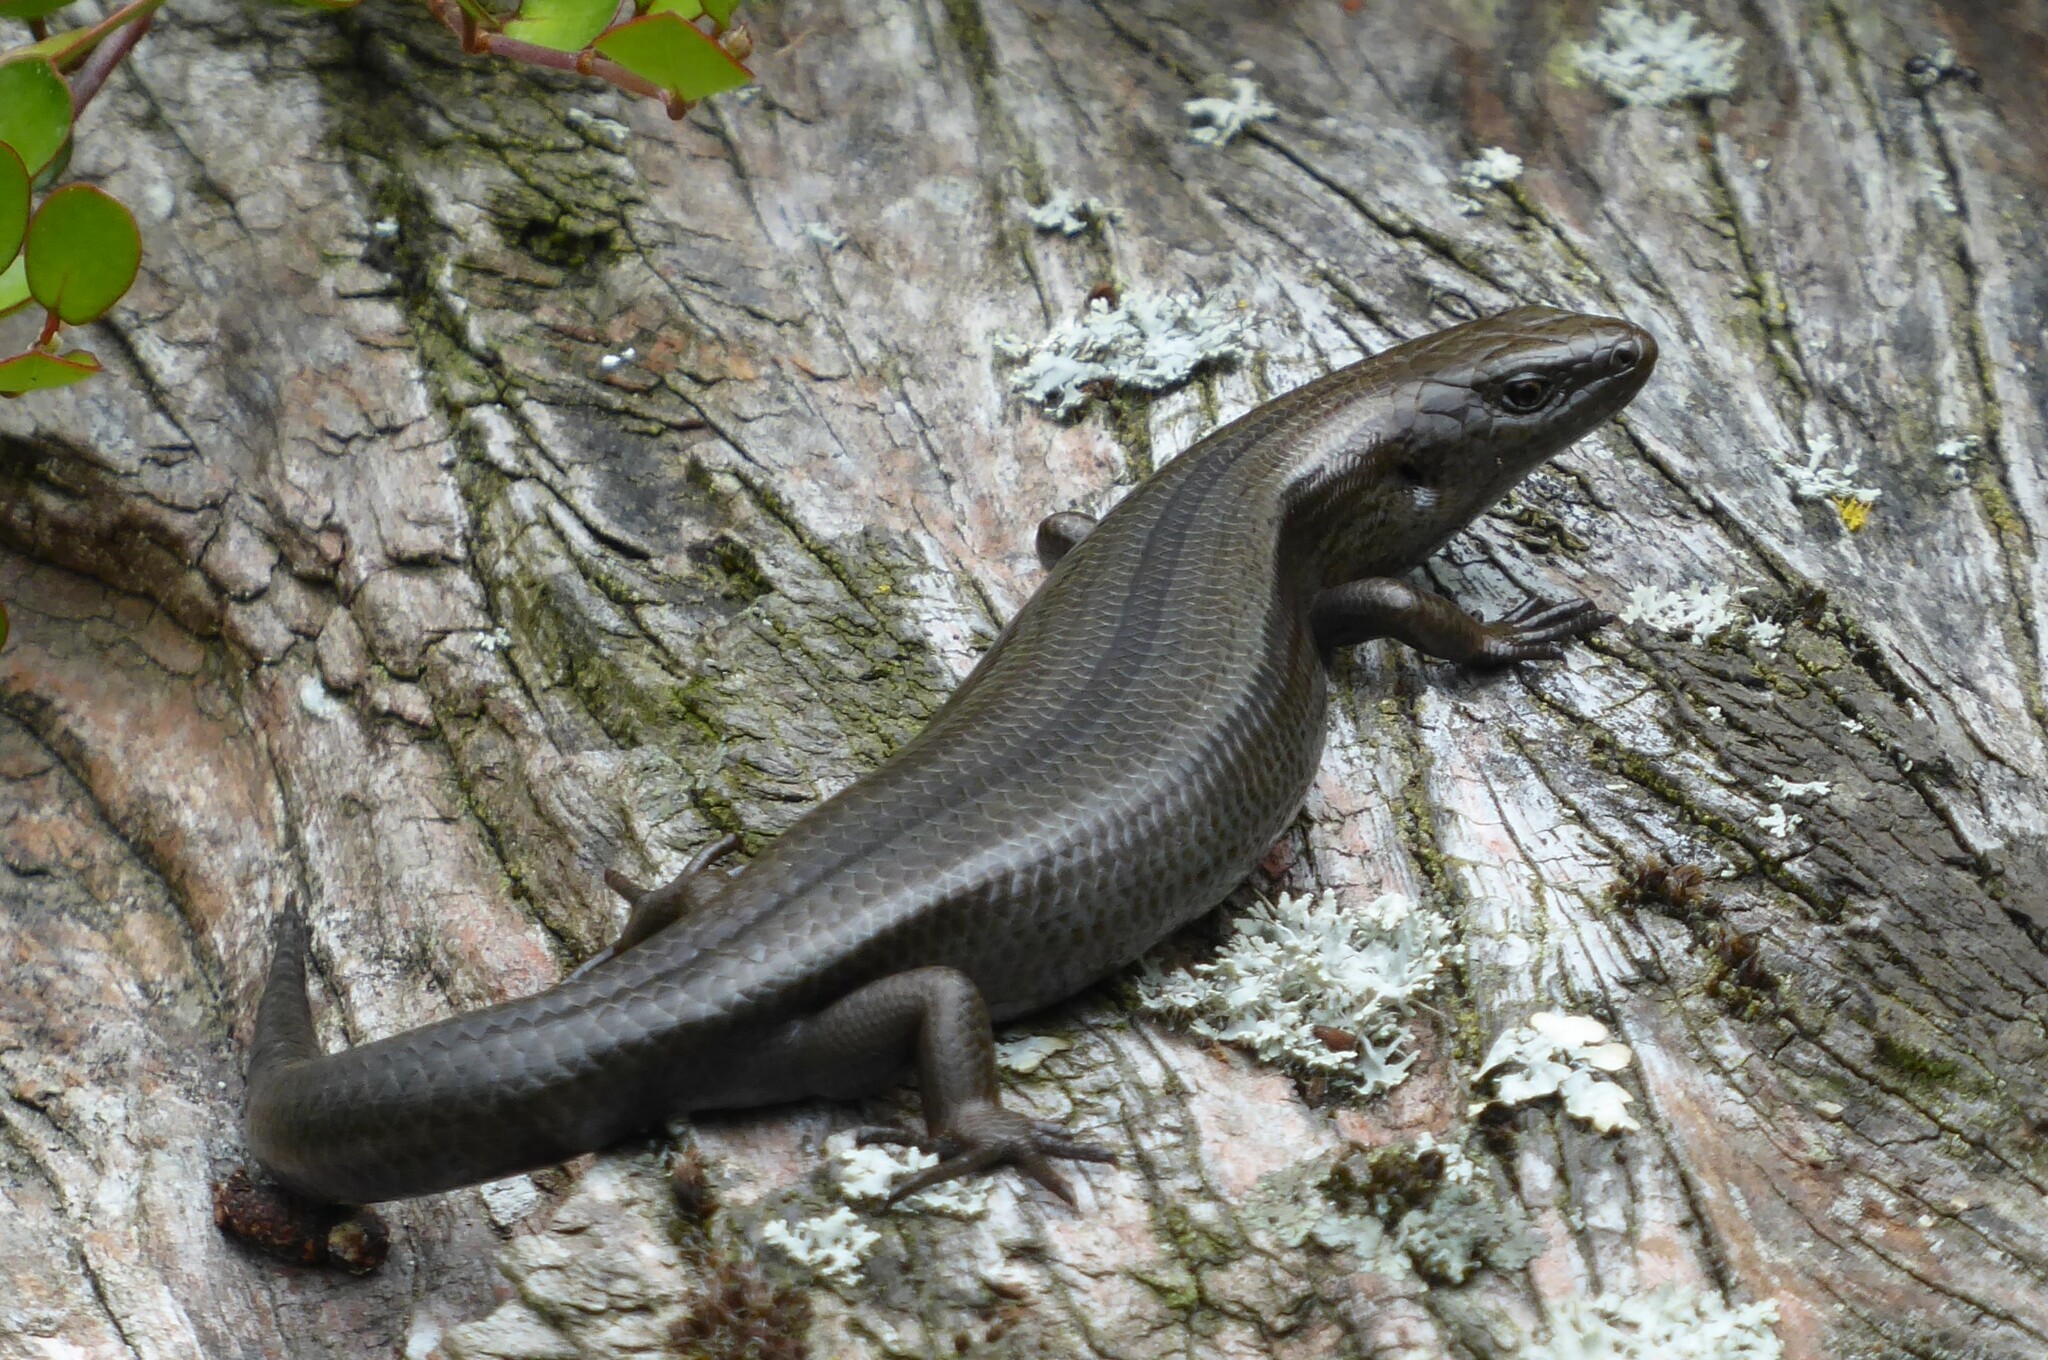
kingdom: Animalia
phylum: Chordata
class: Squamata
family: Scincidae
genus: Oligosoma
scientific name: Oligosoma polychroma
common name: Common new zealand skink
